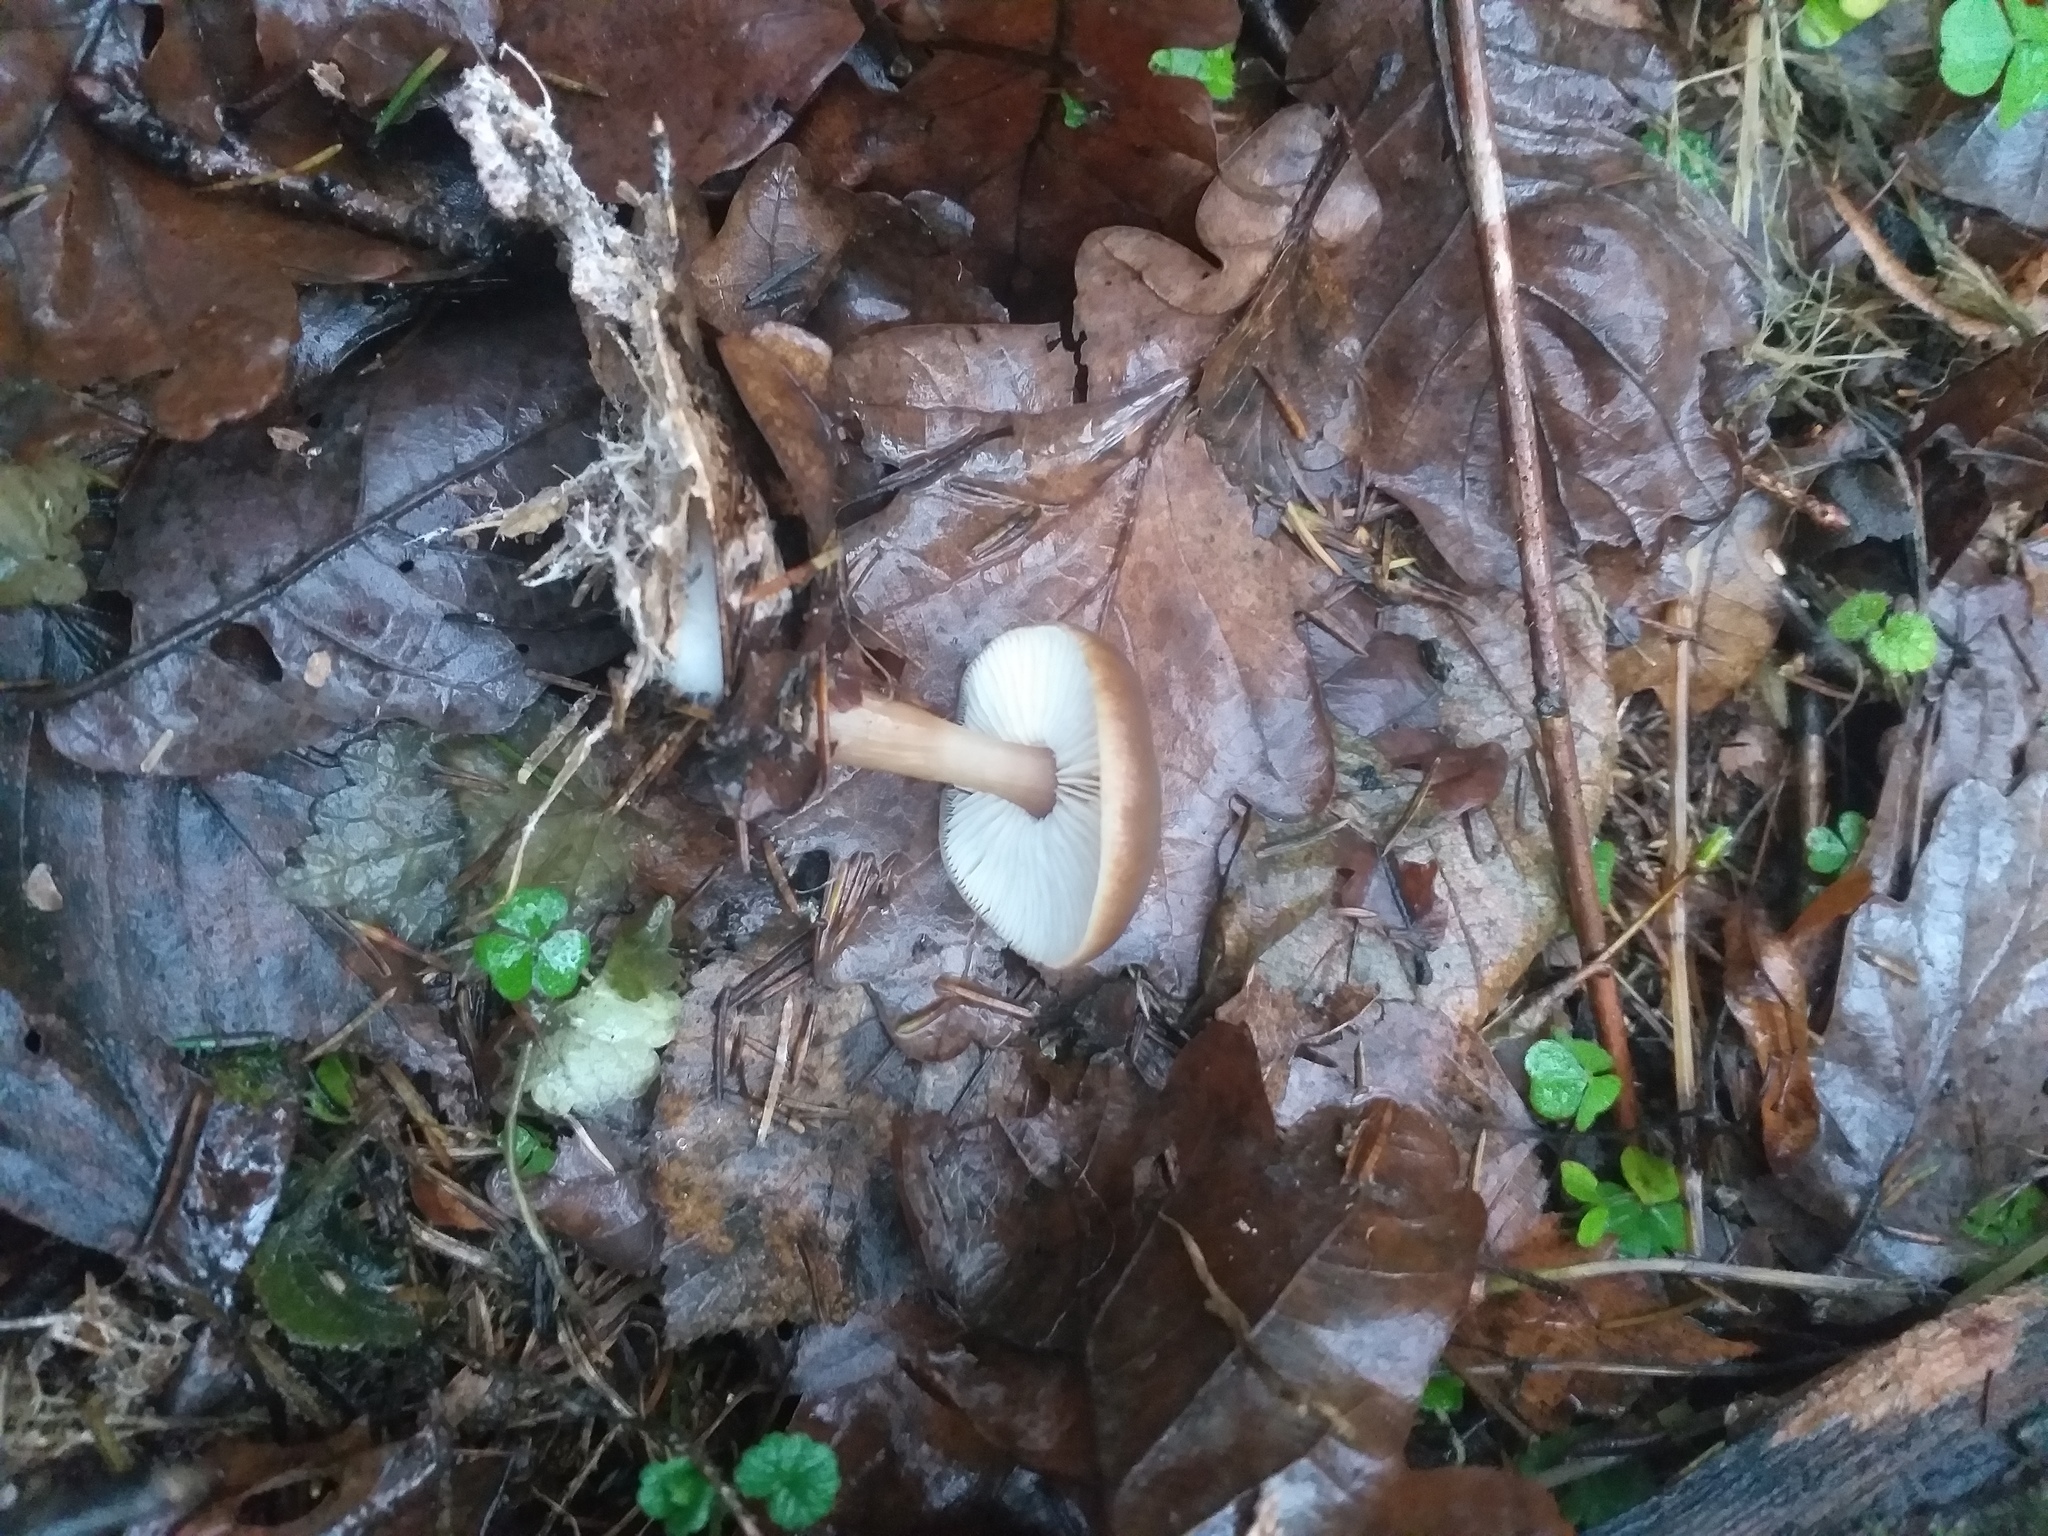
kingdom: Fungi
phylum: Basidiomycota
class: Agaricomycetes
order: Agaricales
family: Omphalotaceae
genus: Rhodocollybia
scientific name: Rhodocollybia butyracea
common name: Butter cap
